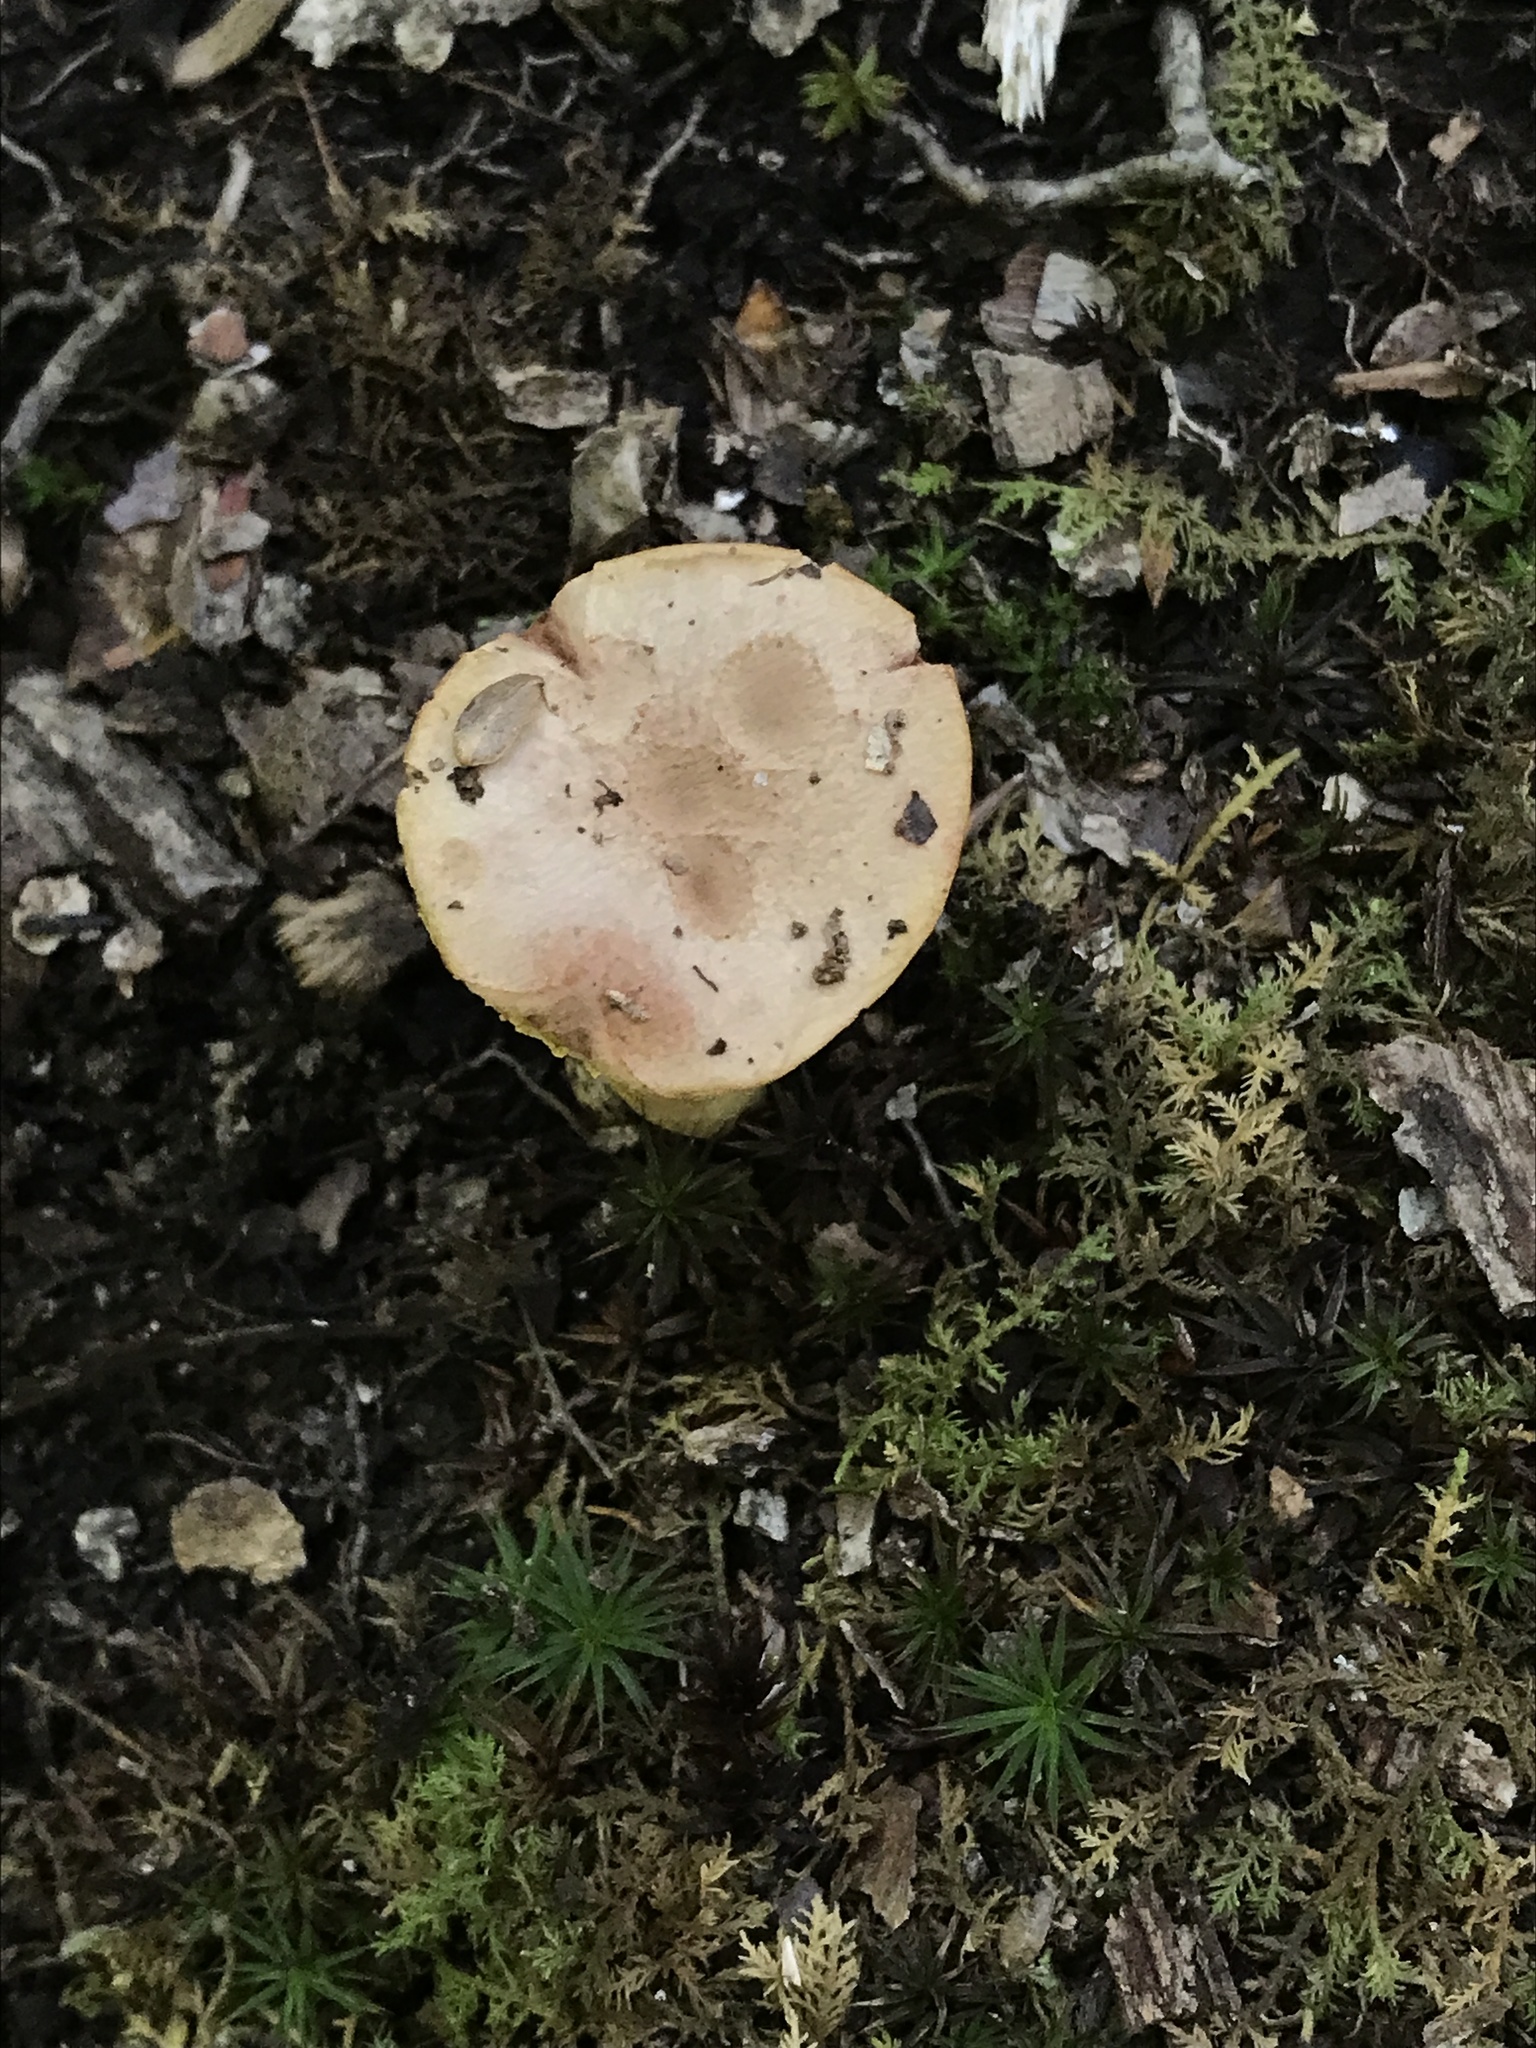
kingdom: Fungi
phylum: Basidiomycota
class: Agaricomycetes
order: Boletales
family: Boletaceae
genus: Aureoboletus
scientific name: Aureoboletus auriporus
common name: Sour gold-pored bolete
